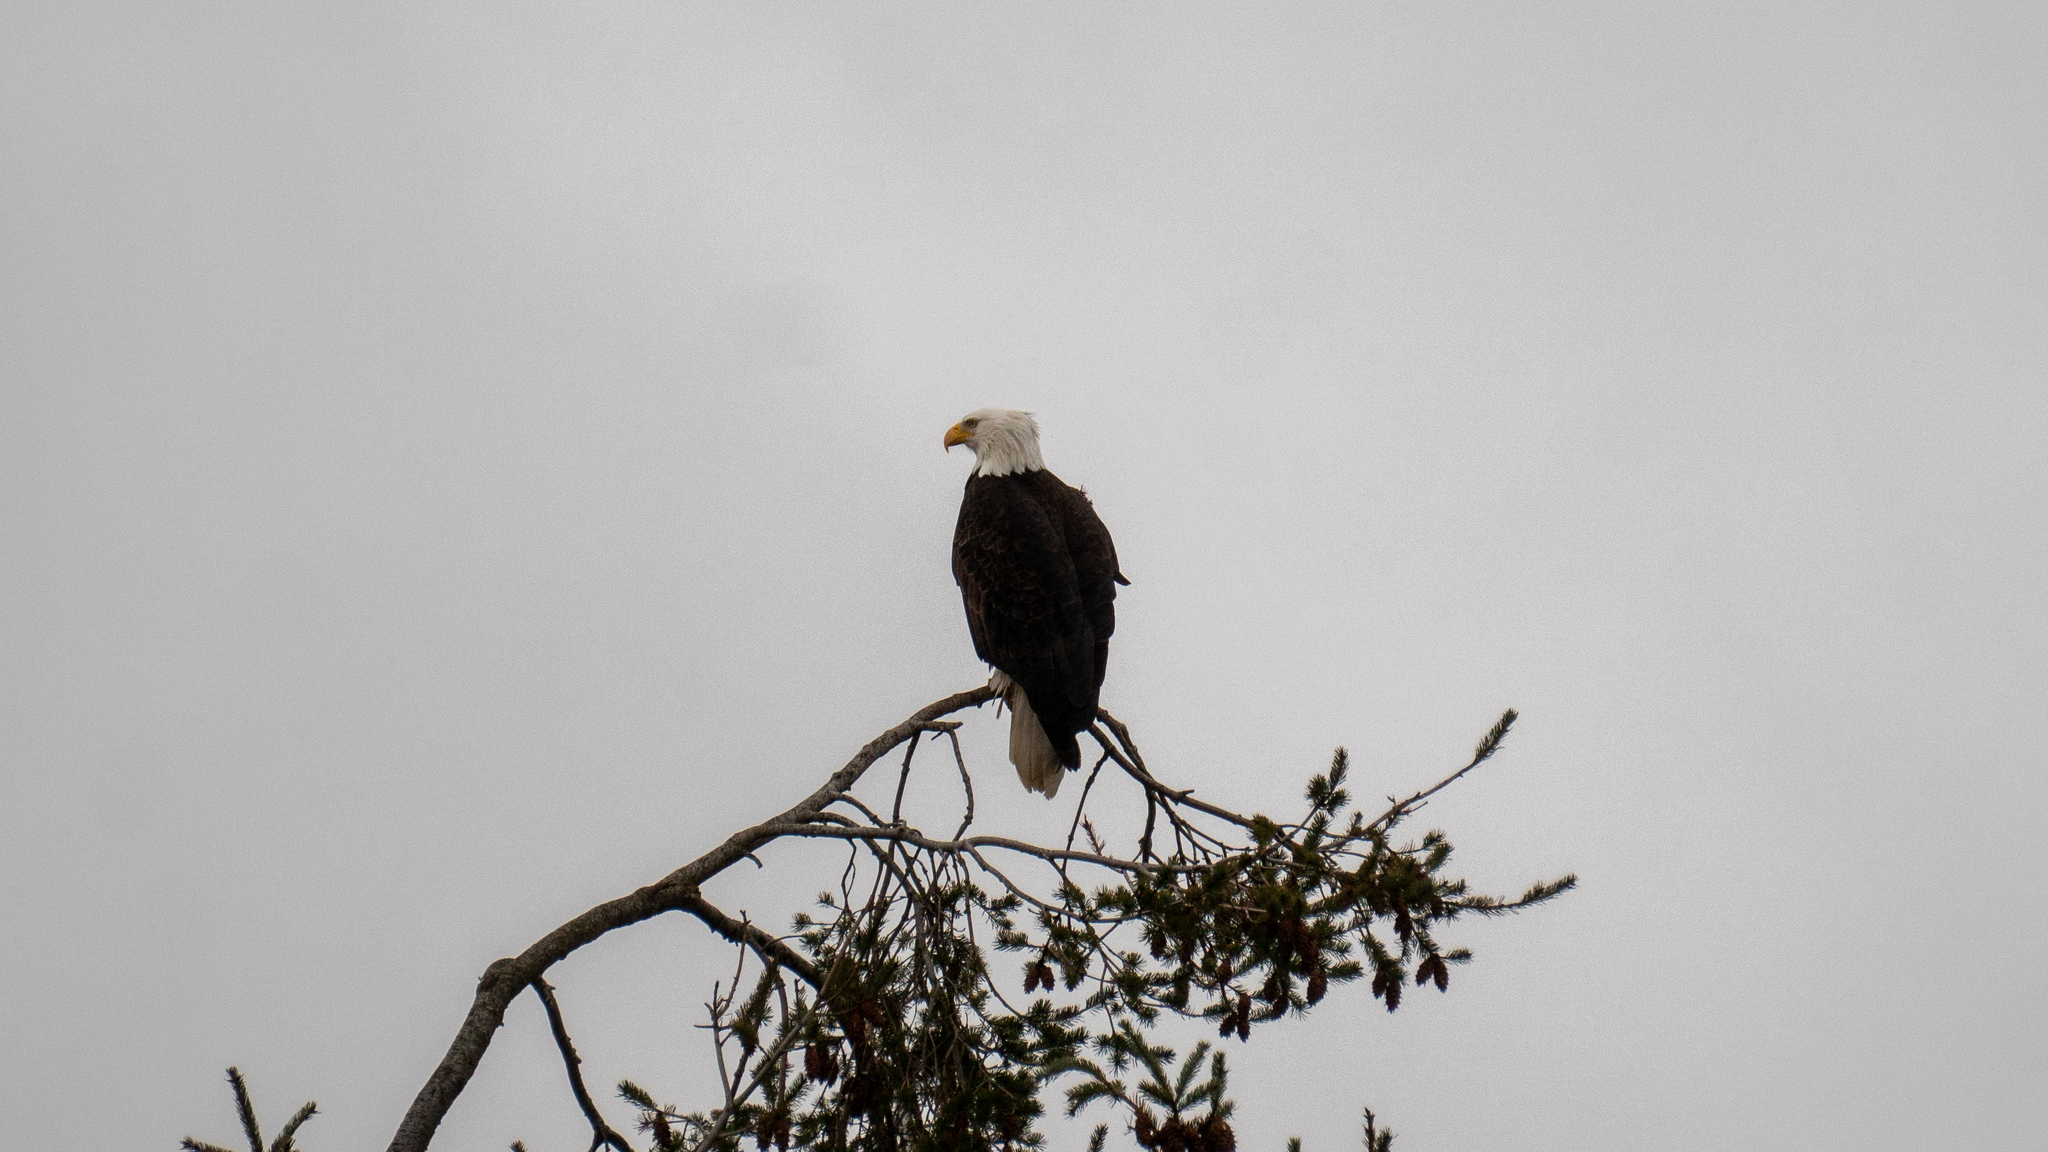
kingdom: Animalia
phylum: Chordata
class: Aves
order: Accipitriformes
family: Accipitridae
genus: Haliaeetus
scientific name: Haliaeetus leucocephalus
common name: Bald eagle
